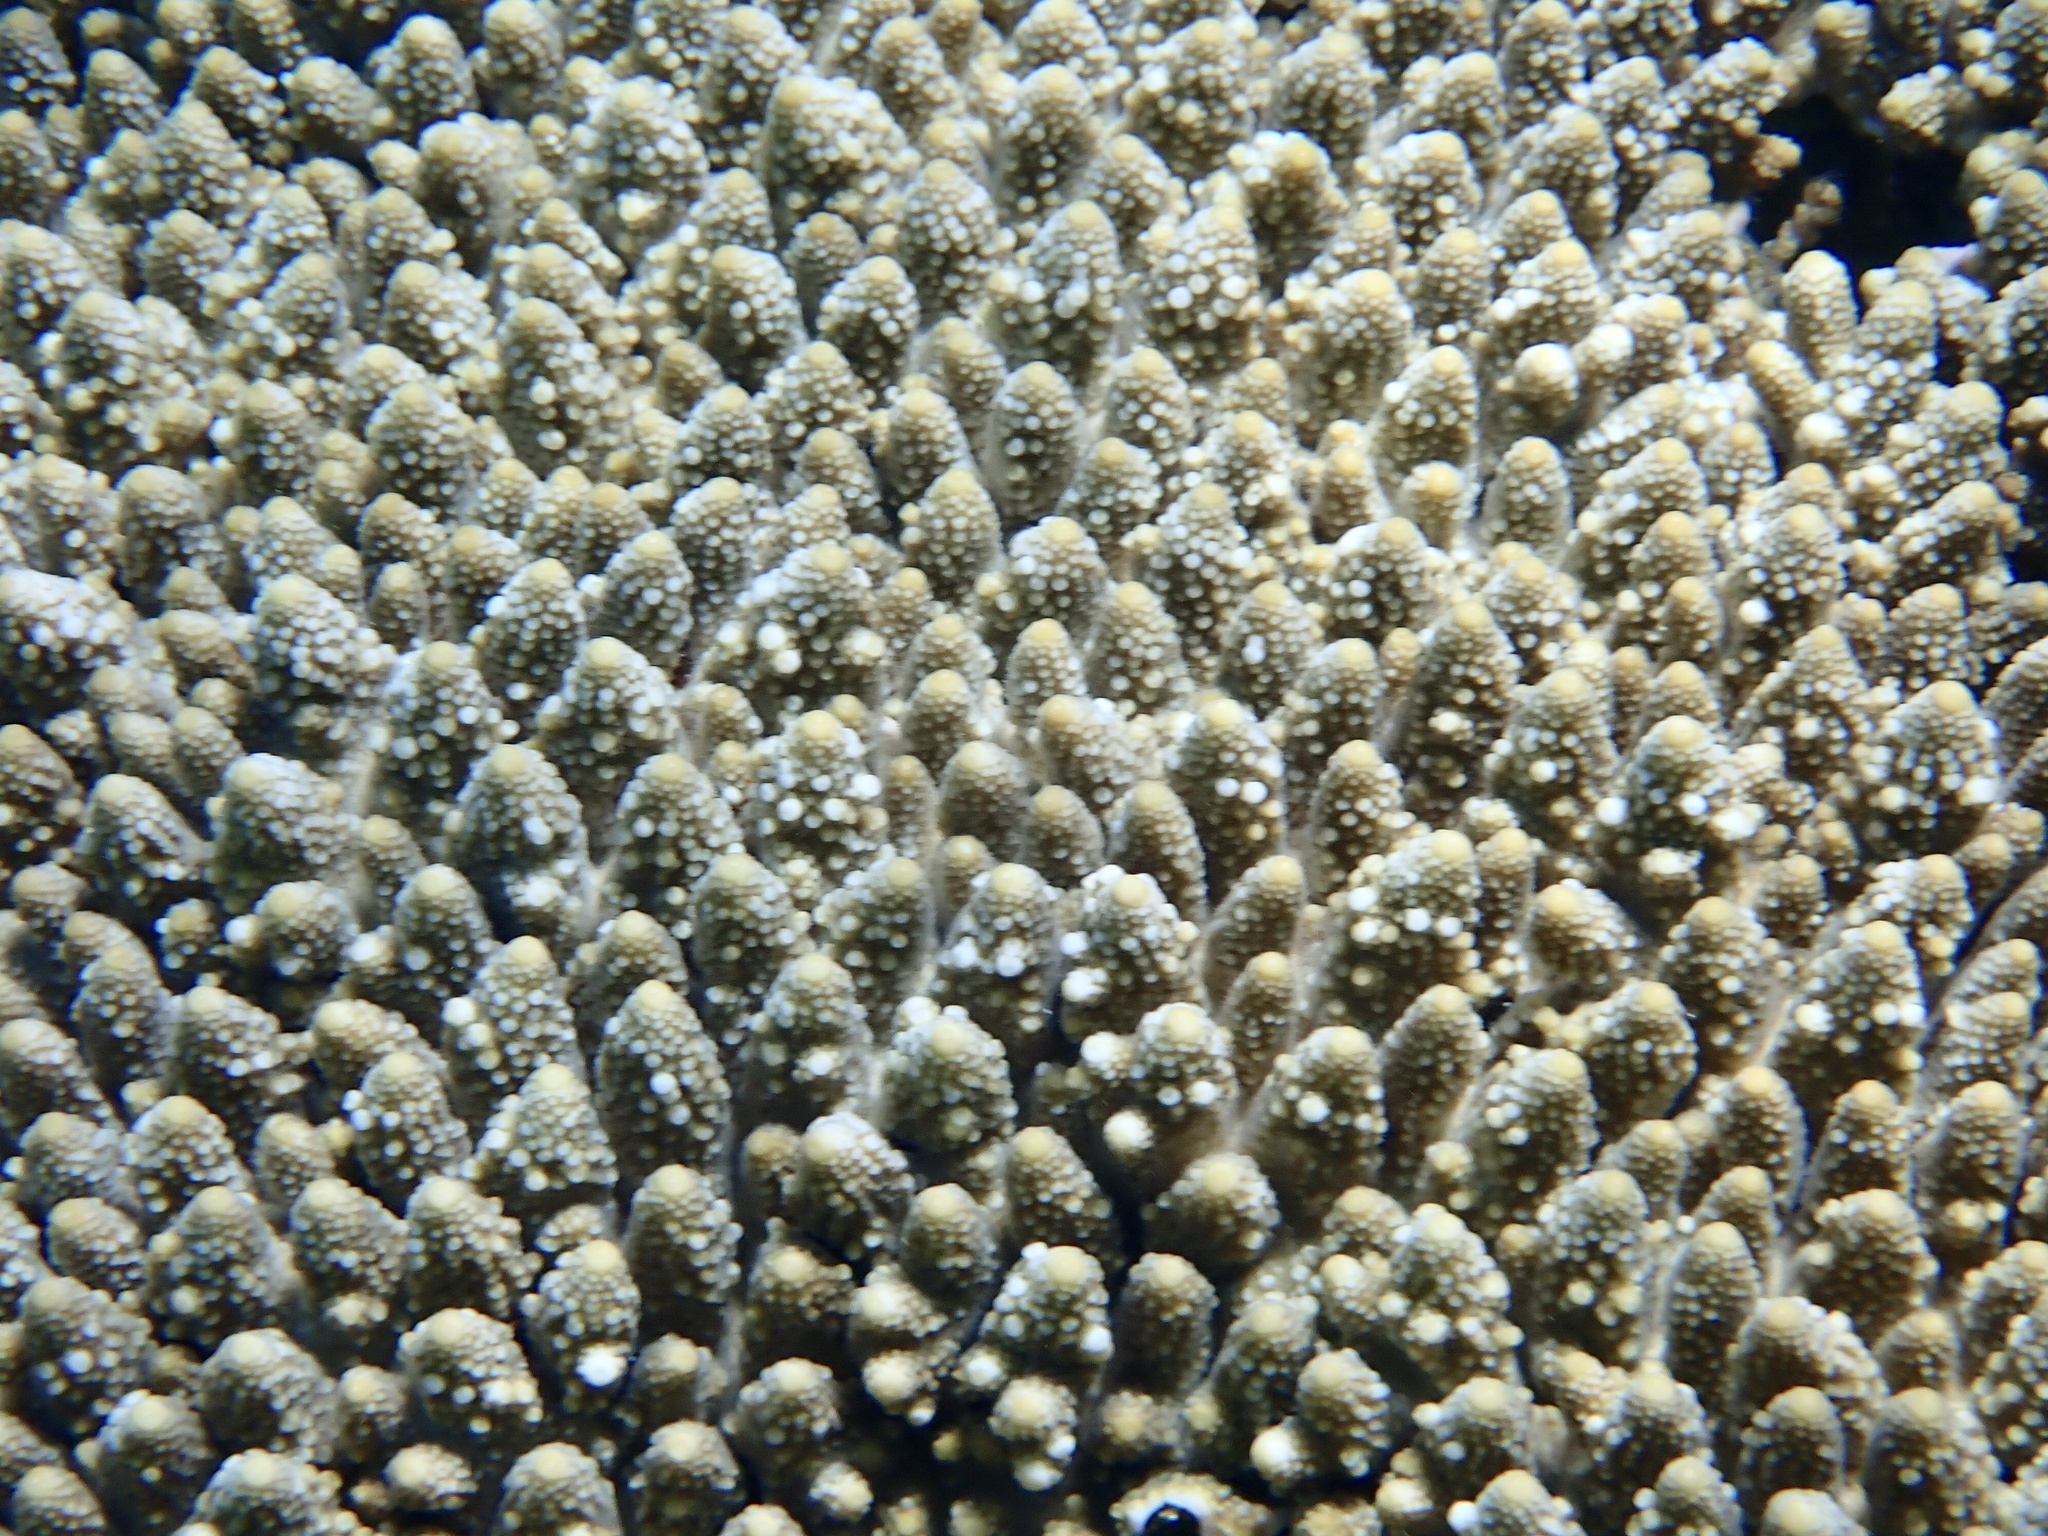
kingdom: Animalia
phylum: Cnidaria
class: Anthozoa
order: Scleractinia
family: Acroporidae
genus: Acropora
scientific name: Acropora gemmifera
